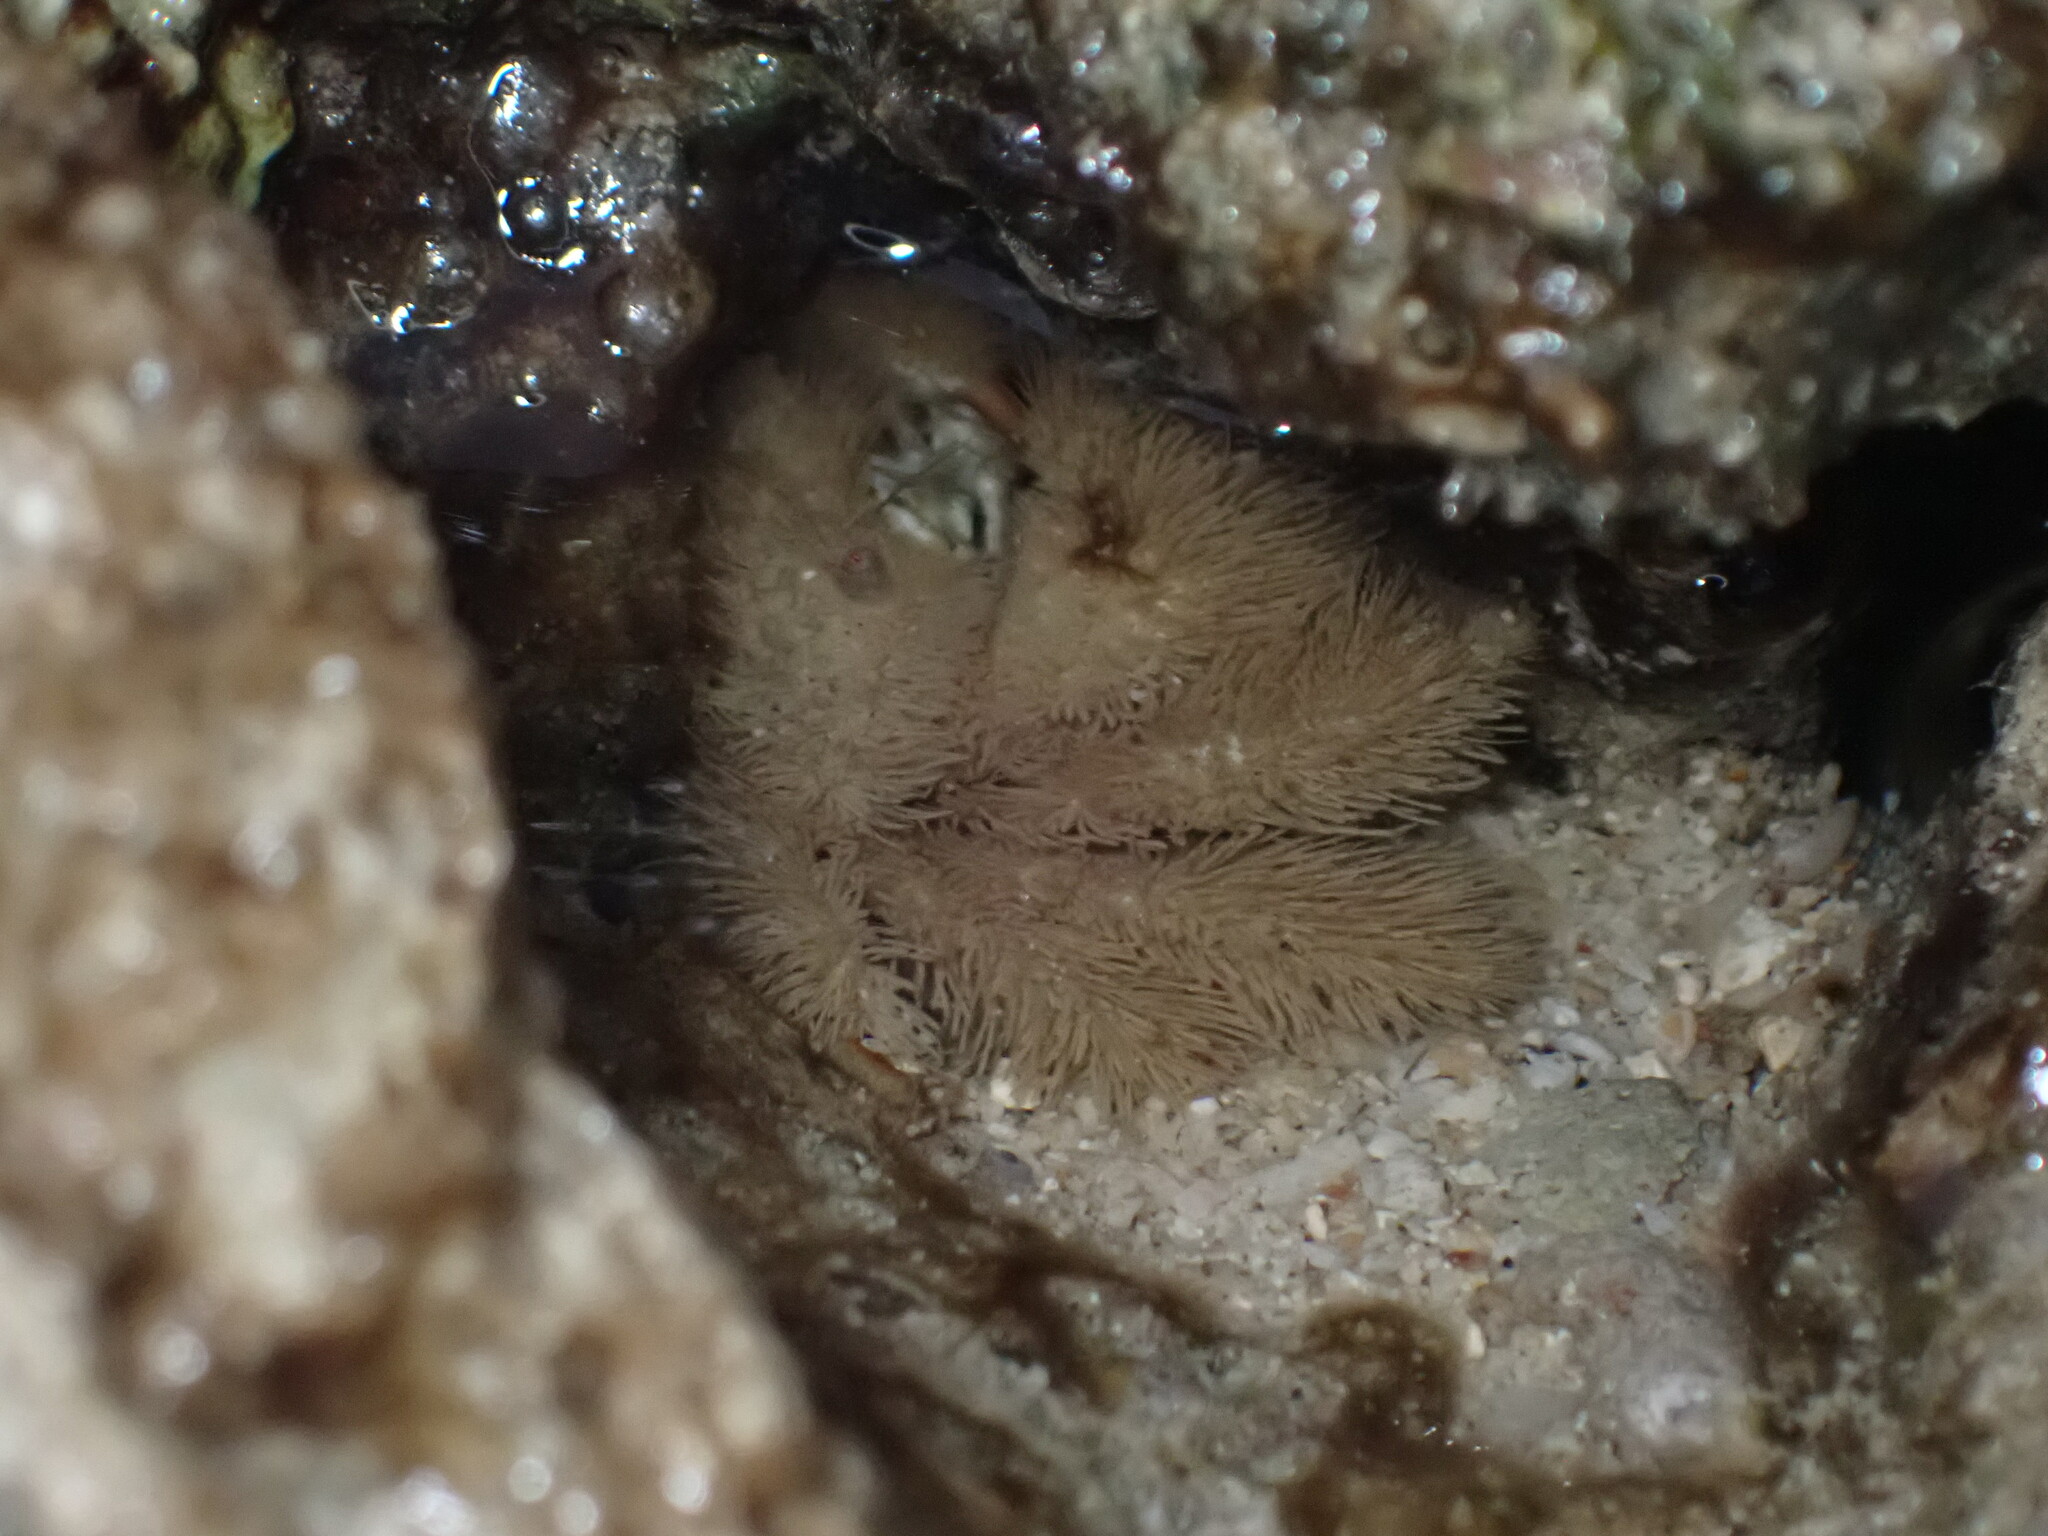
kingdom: Animalia
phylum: Arthropoda
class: Malacostraca
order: Decapoda
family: Pilumnidae
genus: Pilumnus
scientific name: Pilumnus vespertilio
